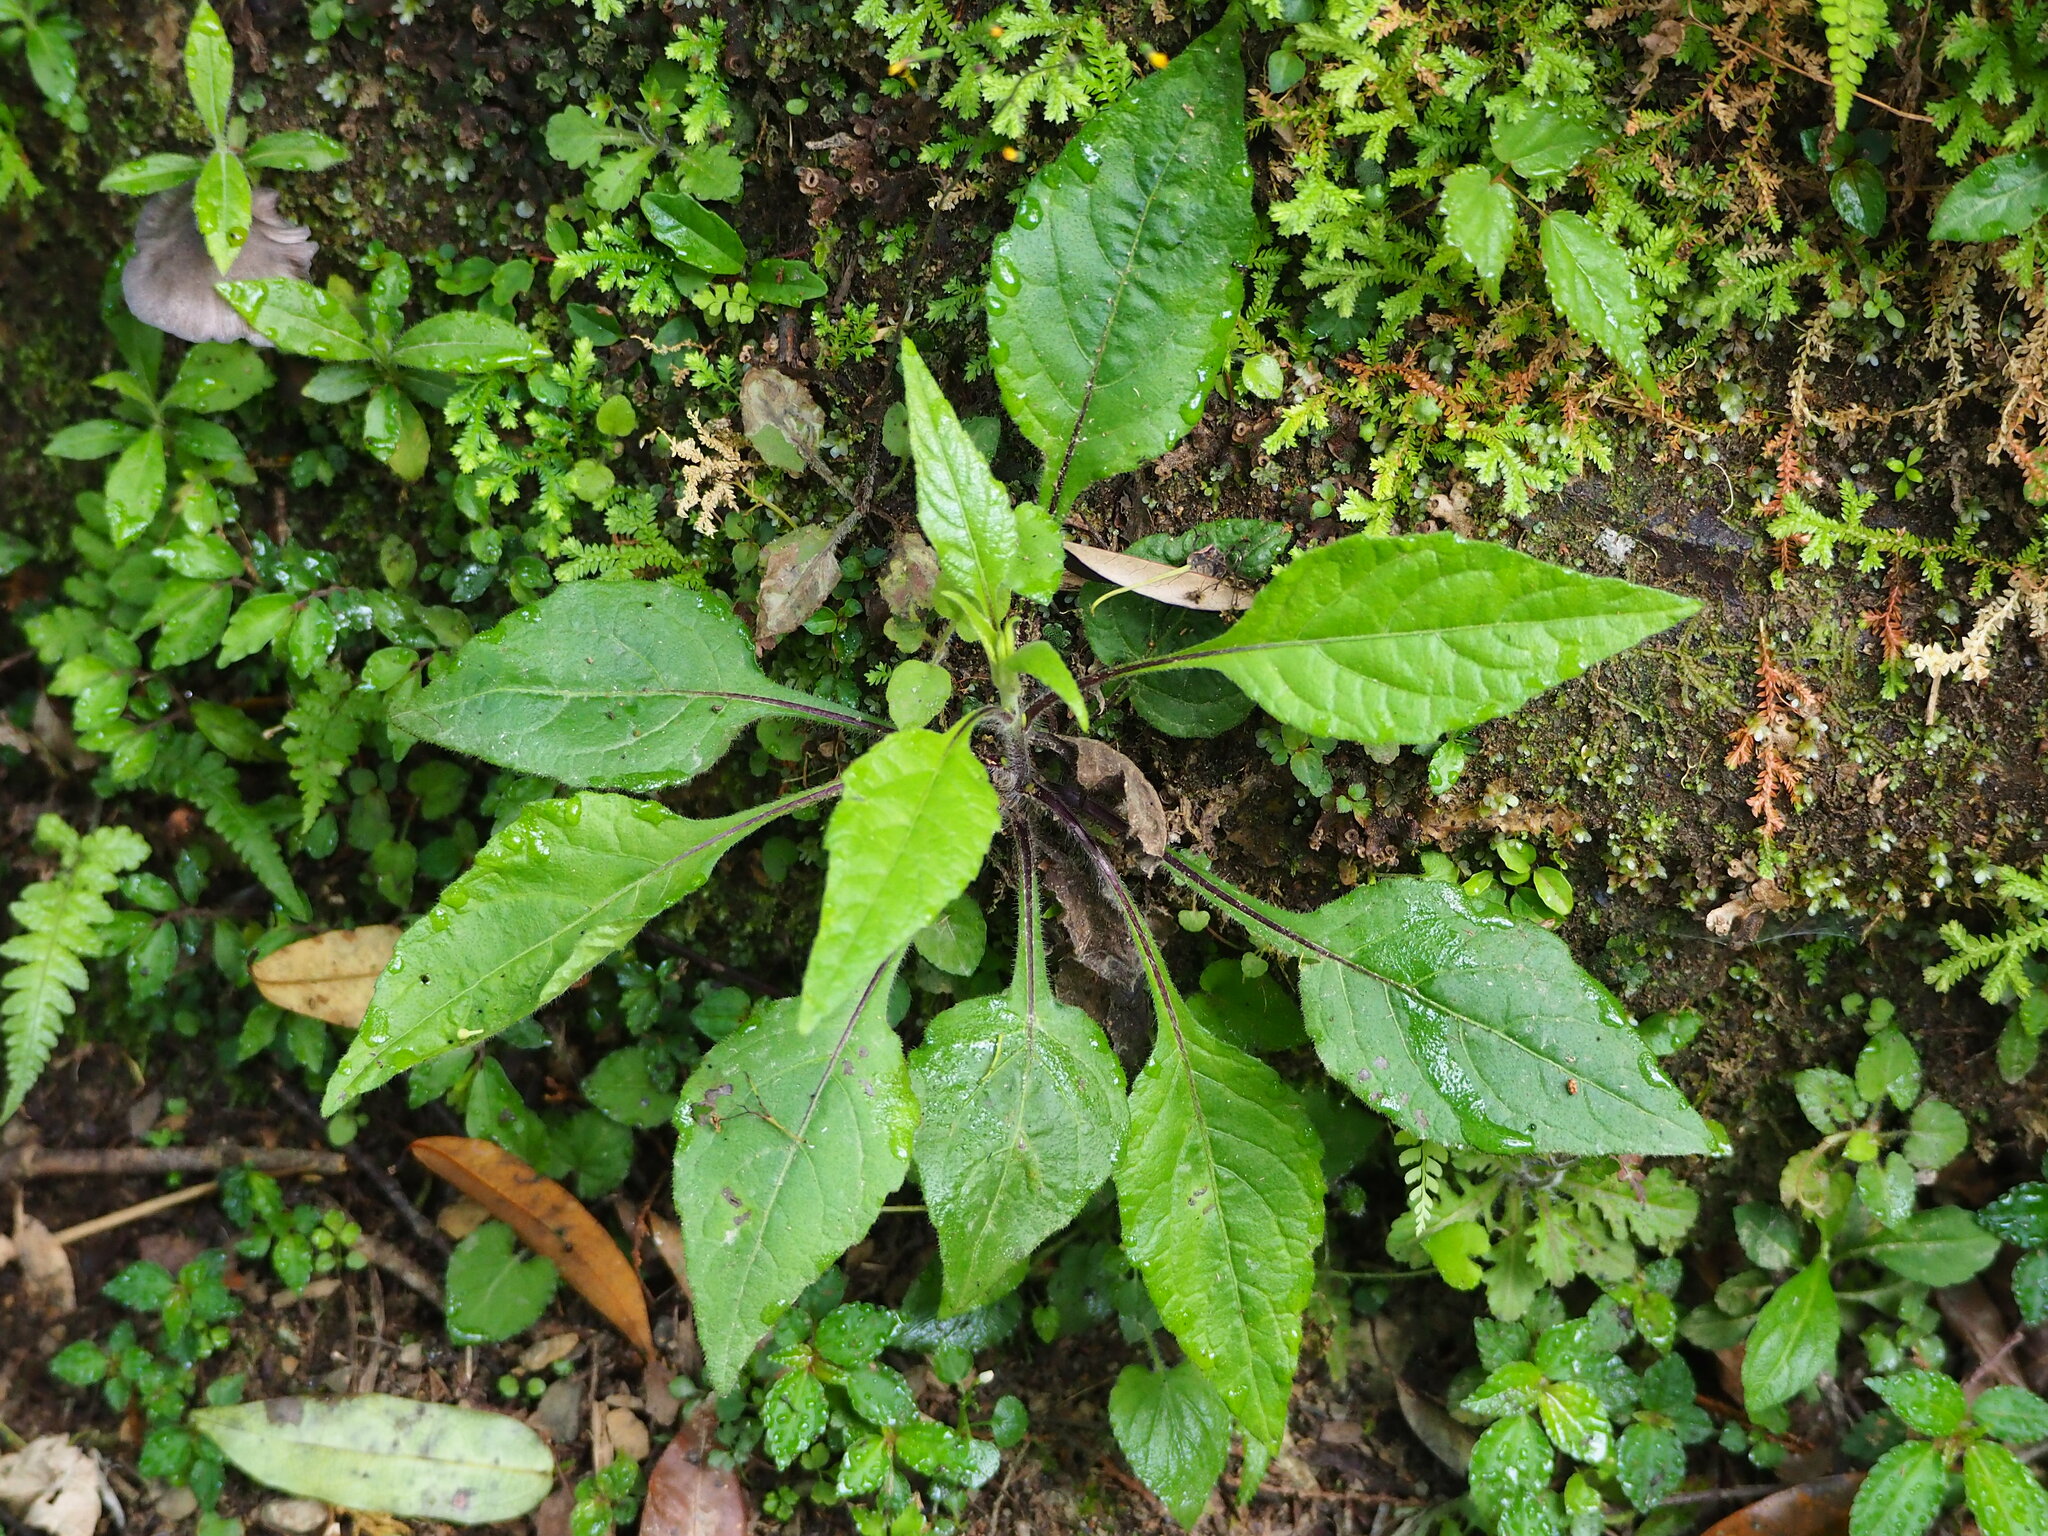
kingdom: Plantae
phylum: Tracheophyta
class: Magnoliopsida
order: Asterales
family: Asteraceae
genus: Carpesium
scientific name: Carpesium nepalense
